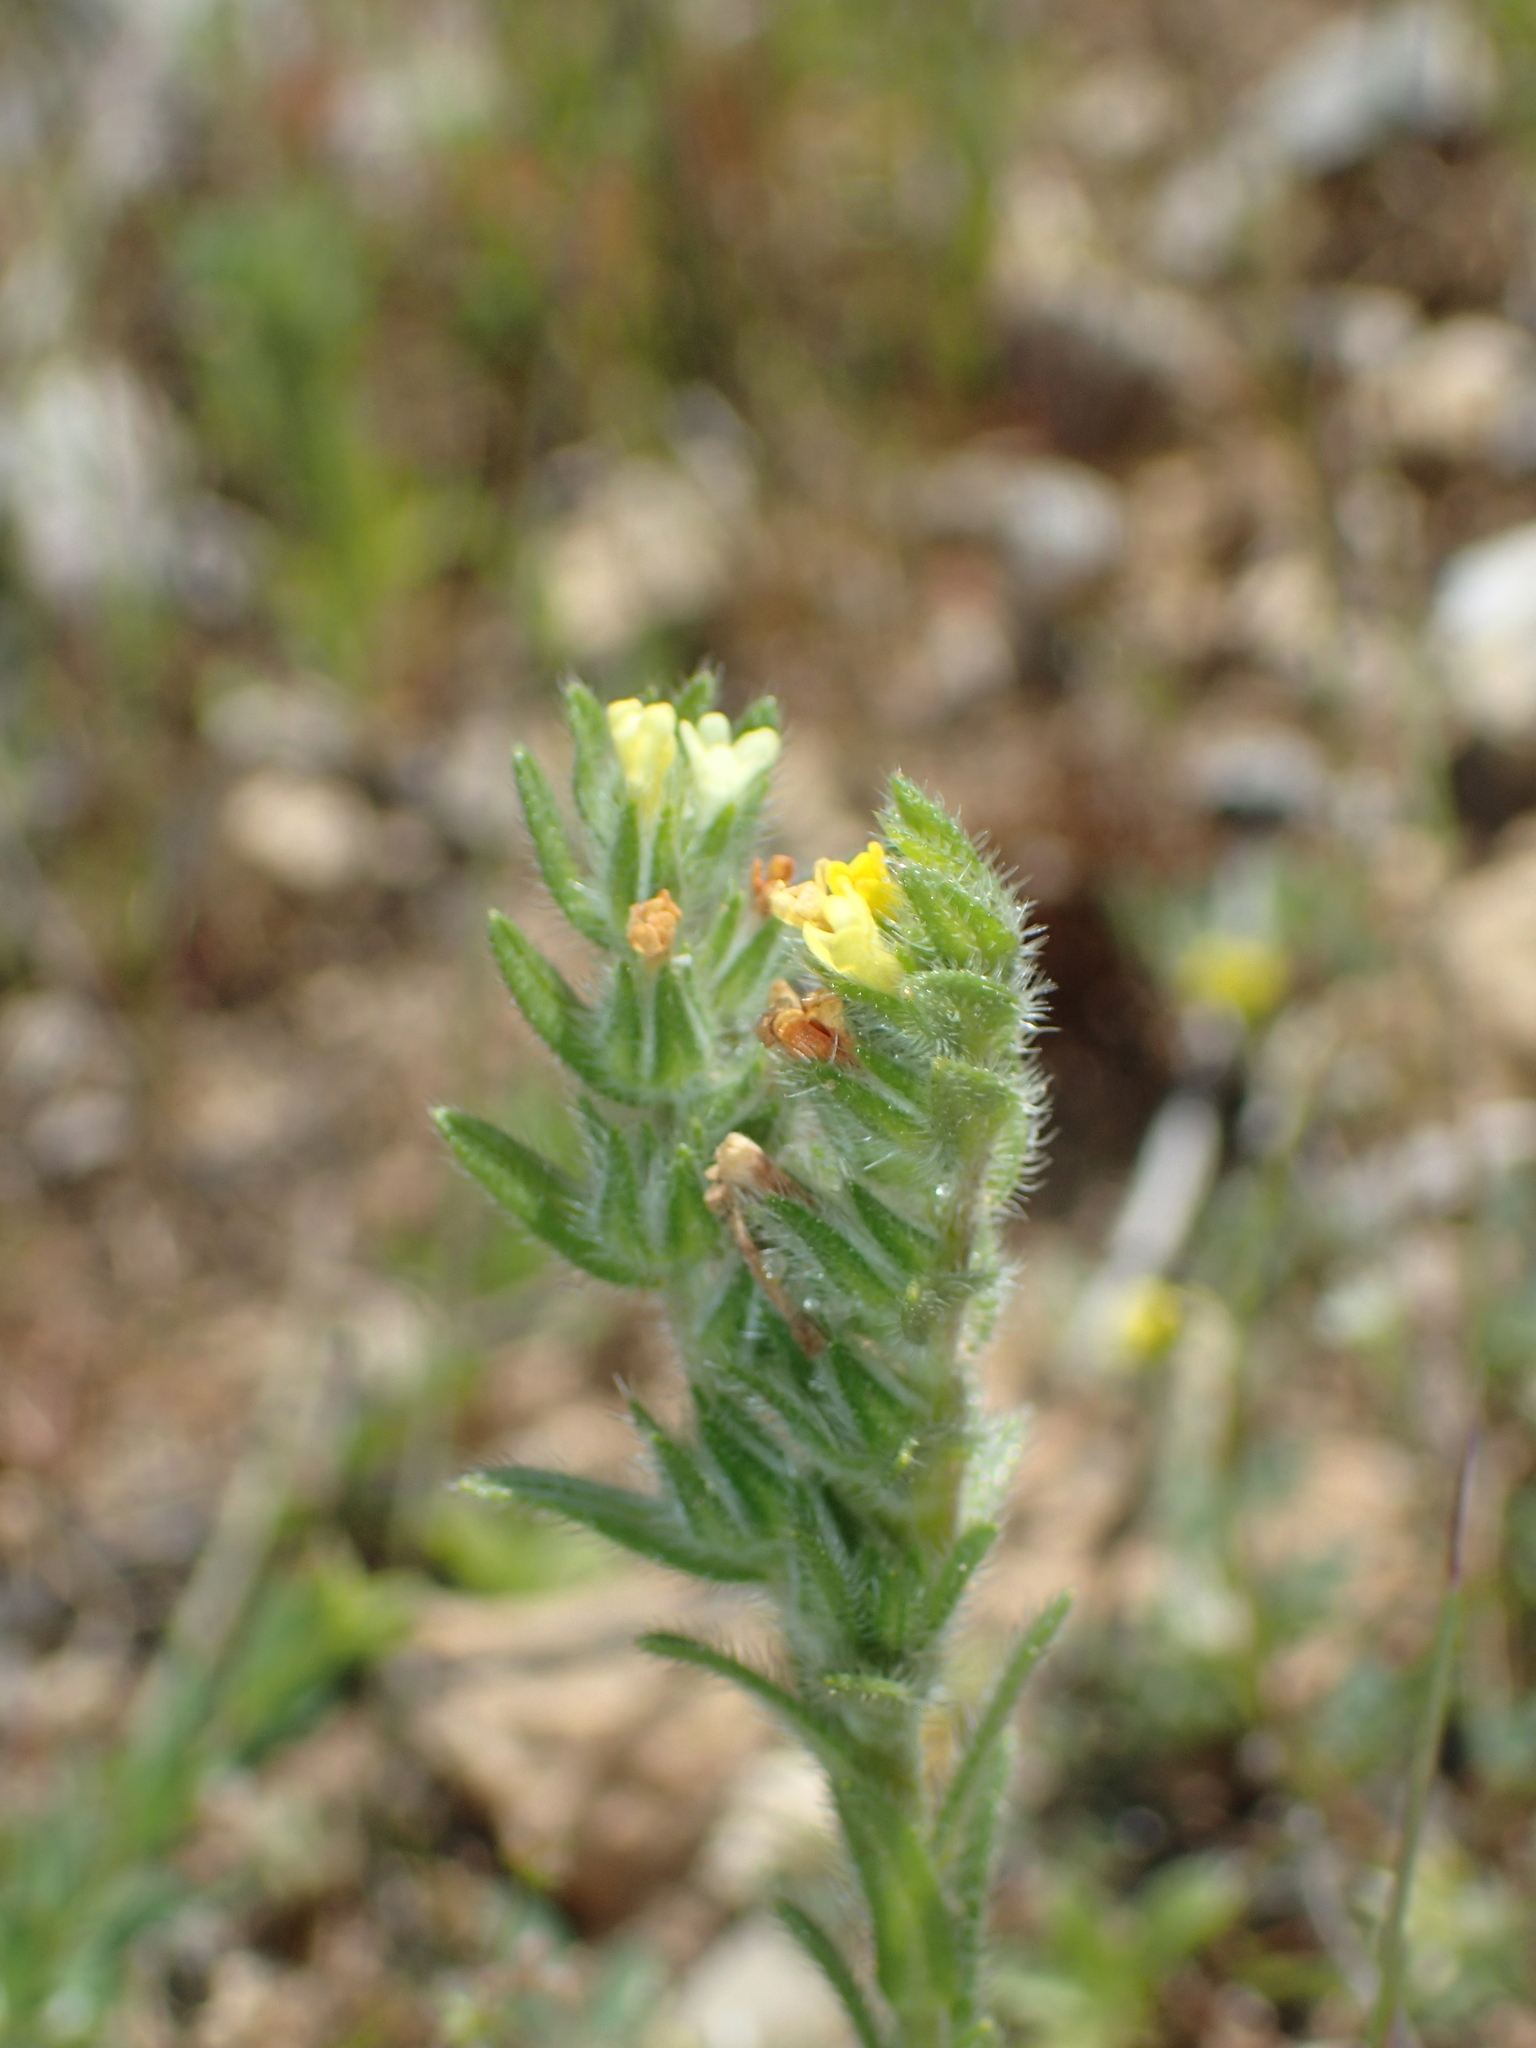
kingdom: Plantae
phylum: Tracheophyta
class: Magnoliopsida
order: Boraginales
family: Boraginaceae
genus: Neatostema
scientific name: Neatostema apulum
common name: Hairy sheepweed
